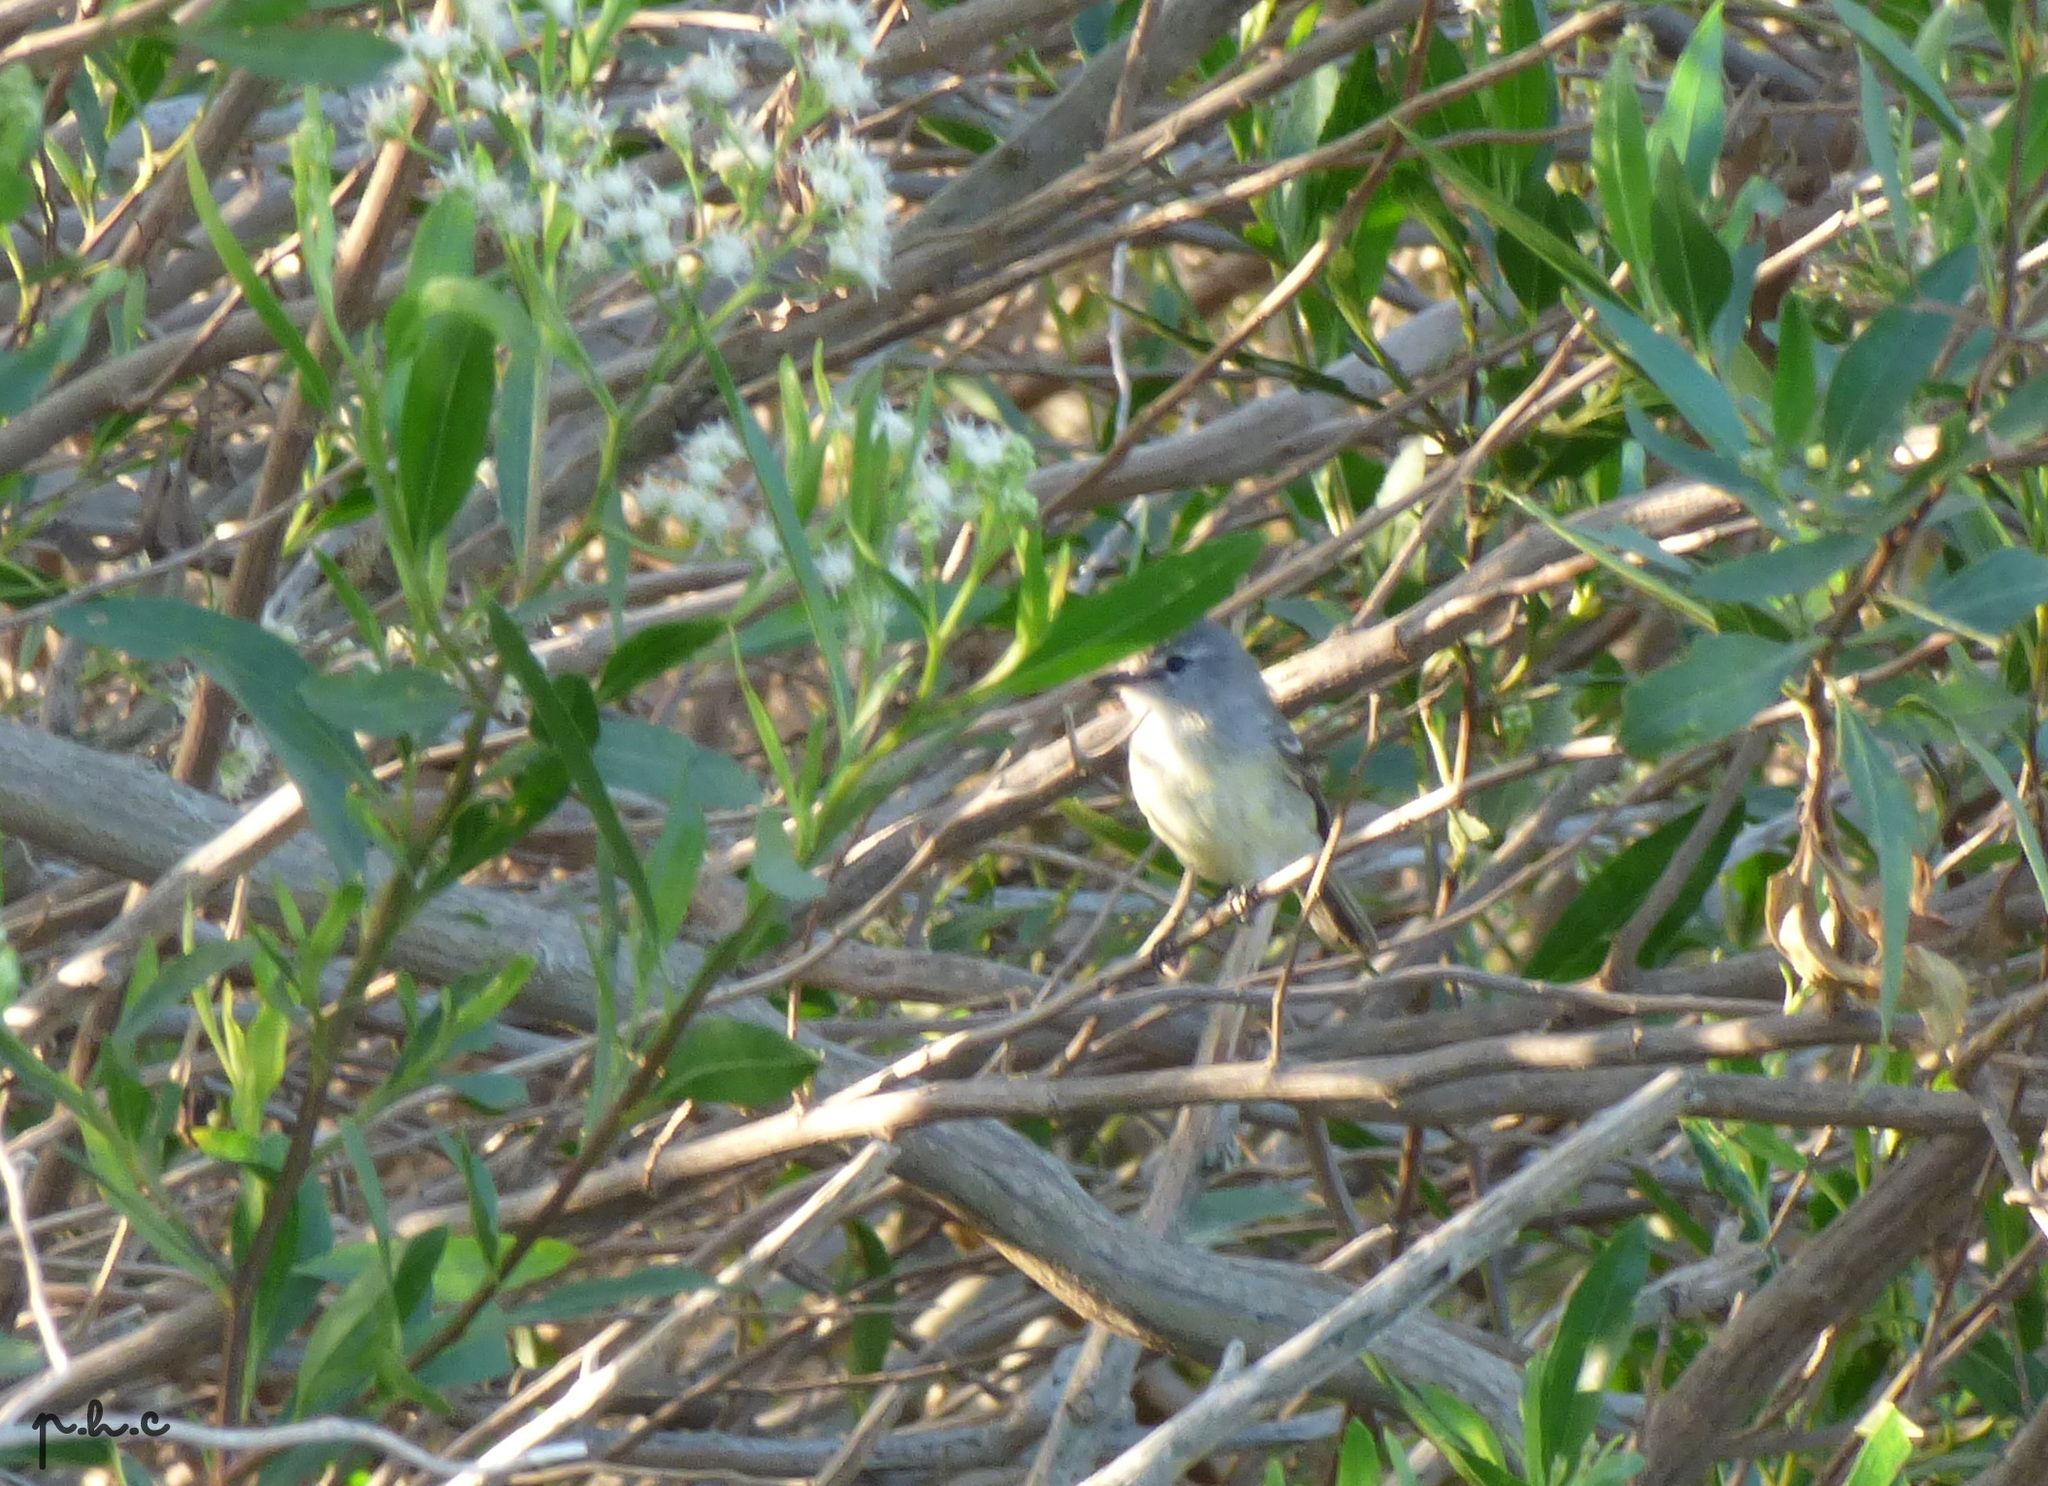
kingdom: Animalia
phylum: Chordata
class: Aves
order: Passeriformes
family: Tyrannidae
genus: Serpophaga
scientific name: Serpophaga griseicapilla
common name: Straneck's tyrannulet
